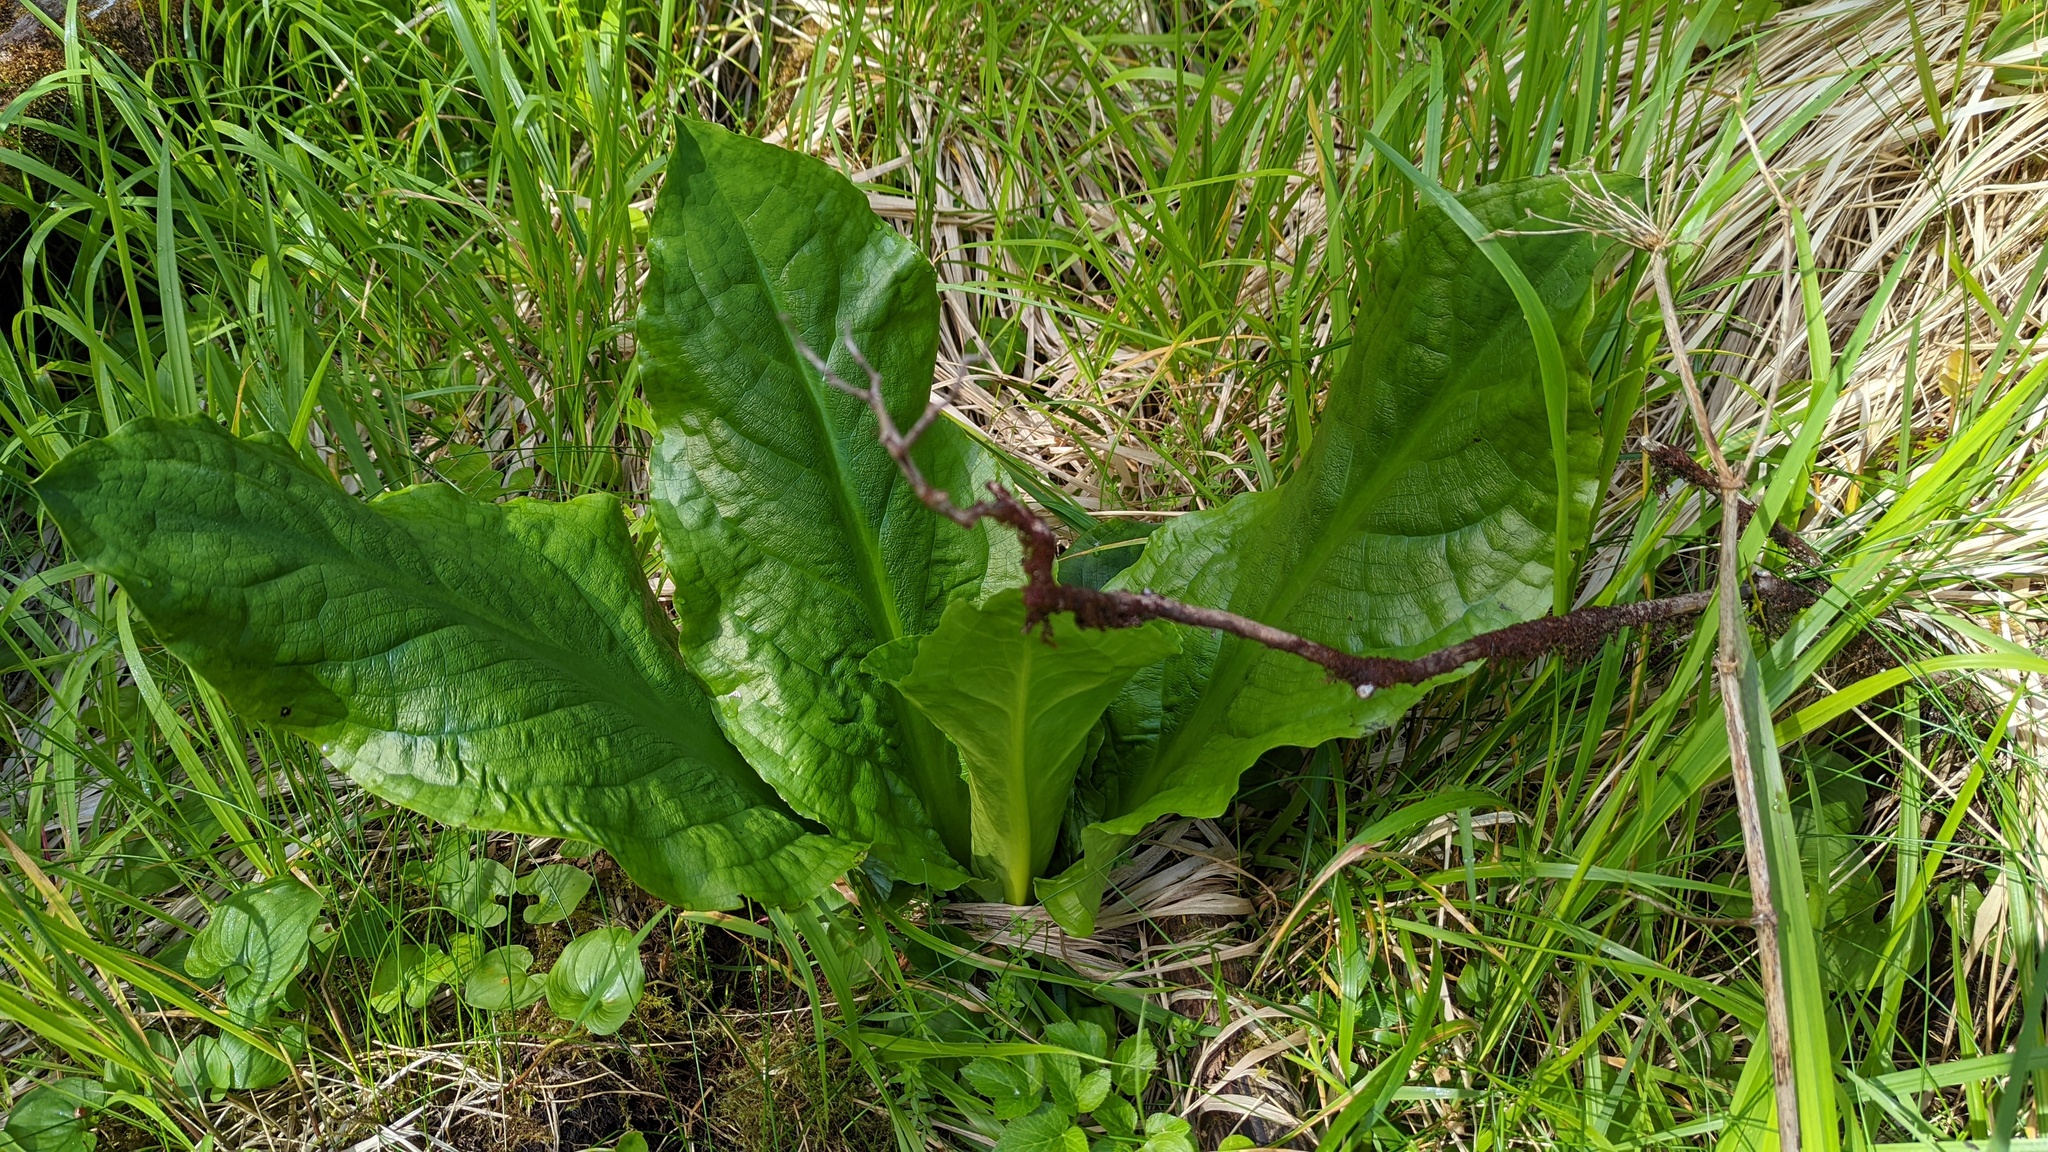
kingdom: Plantae
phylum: Tracheophyta
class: Liliopsida
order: Alismatales
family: Araceae
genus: Lysichiton
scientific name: Lysichiton americanus
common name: American skunk cabbage
